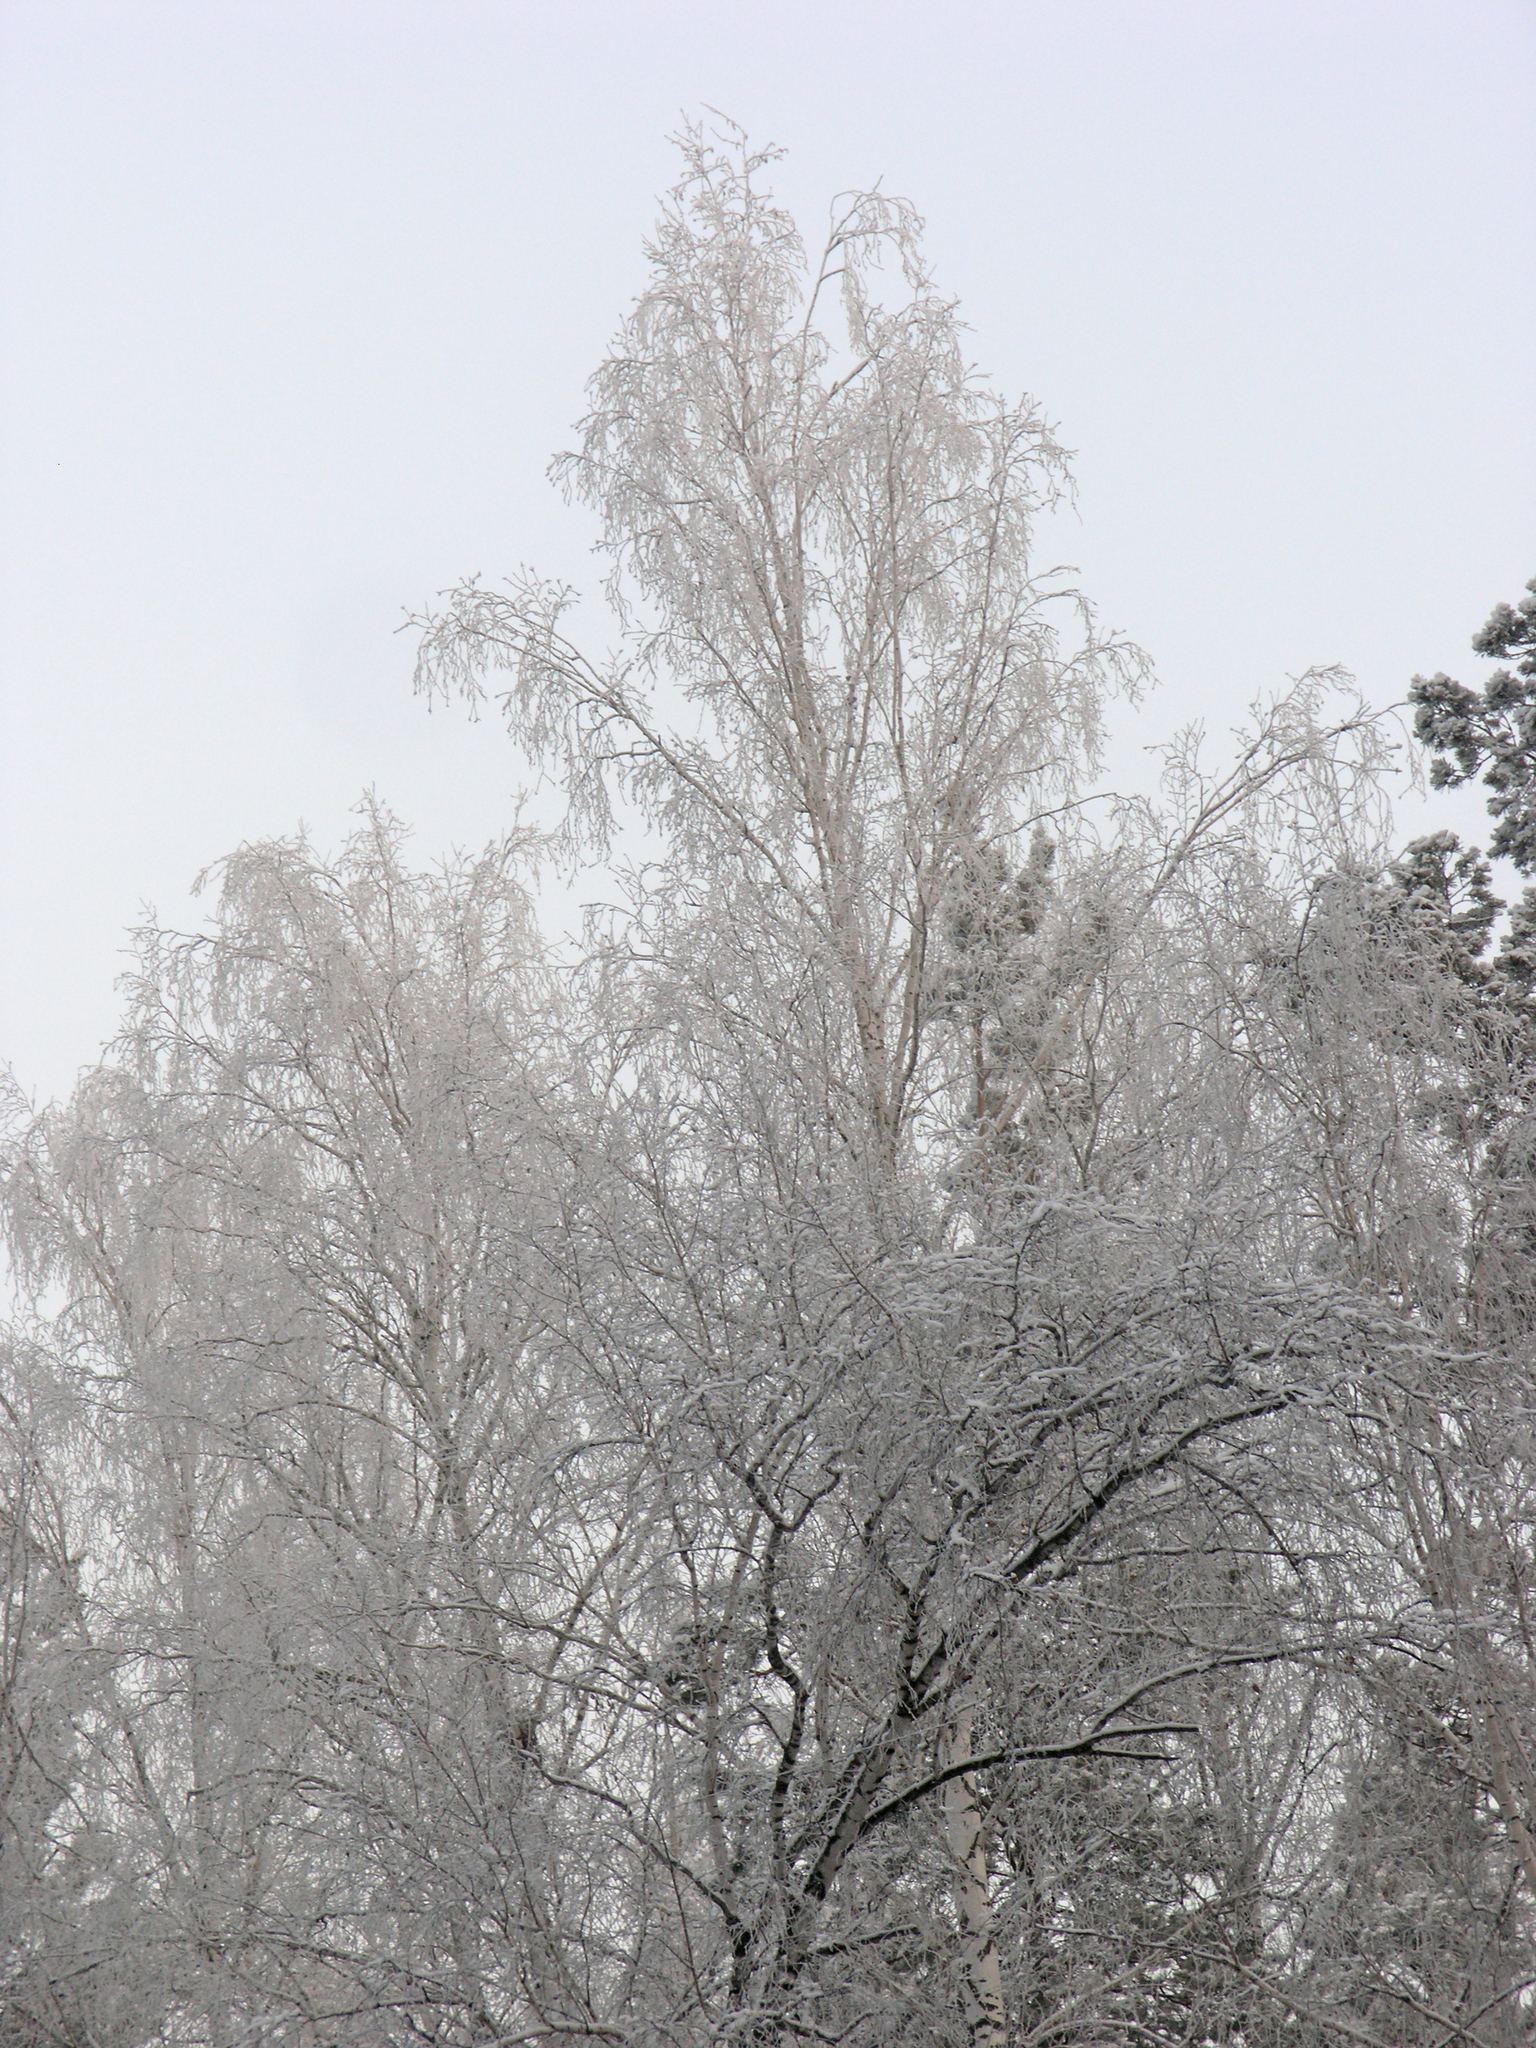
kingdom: Plantae
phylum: Tracheophyta
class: Magnoliopsida
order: Fagales
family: Betulaceae
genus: Betula
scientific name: Betula pendula
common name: Silver birch
